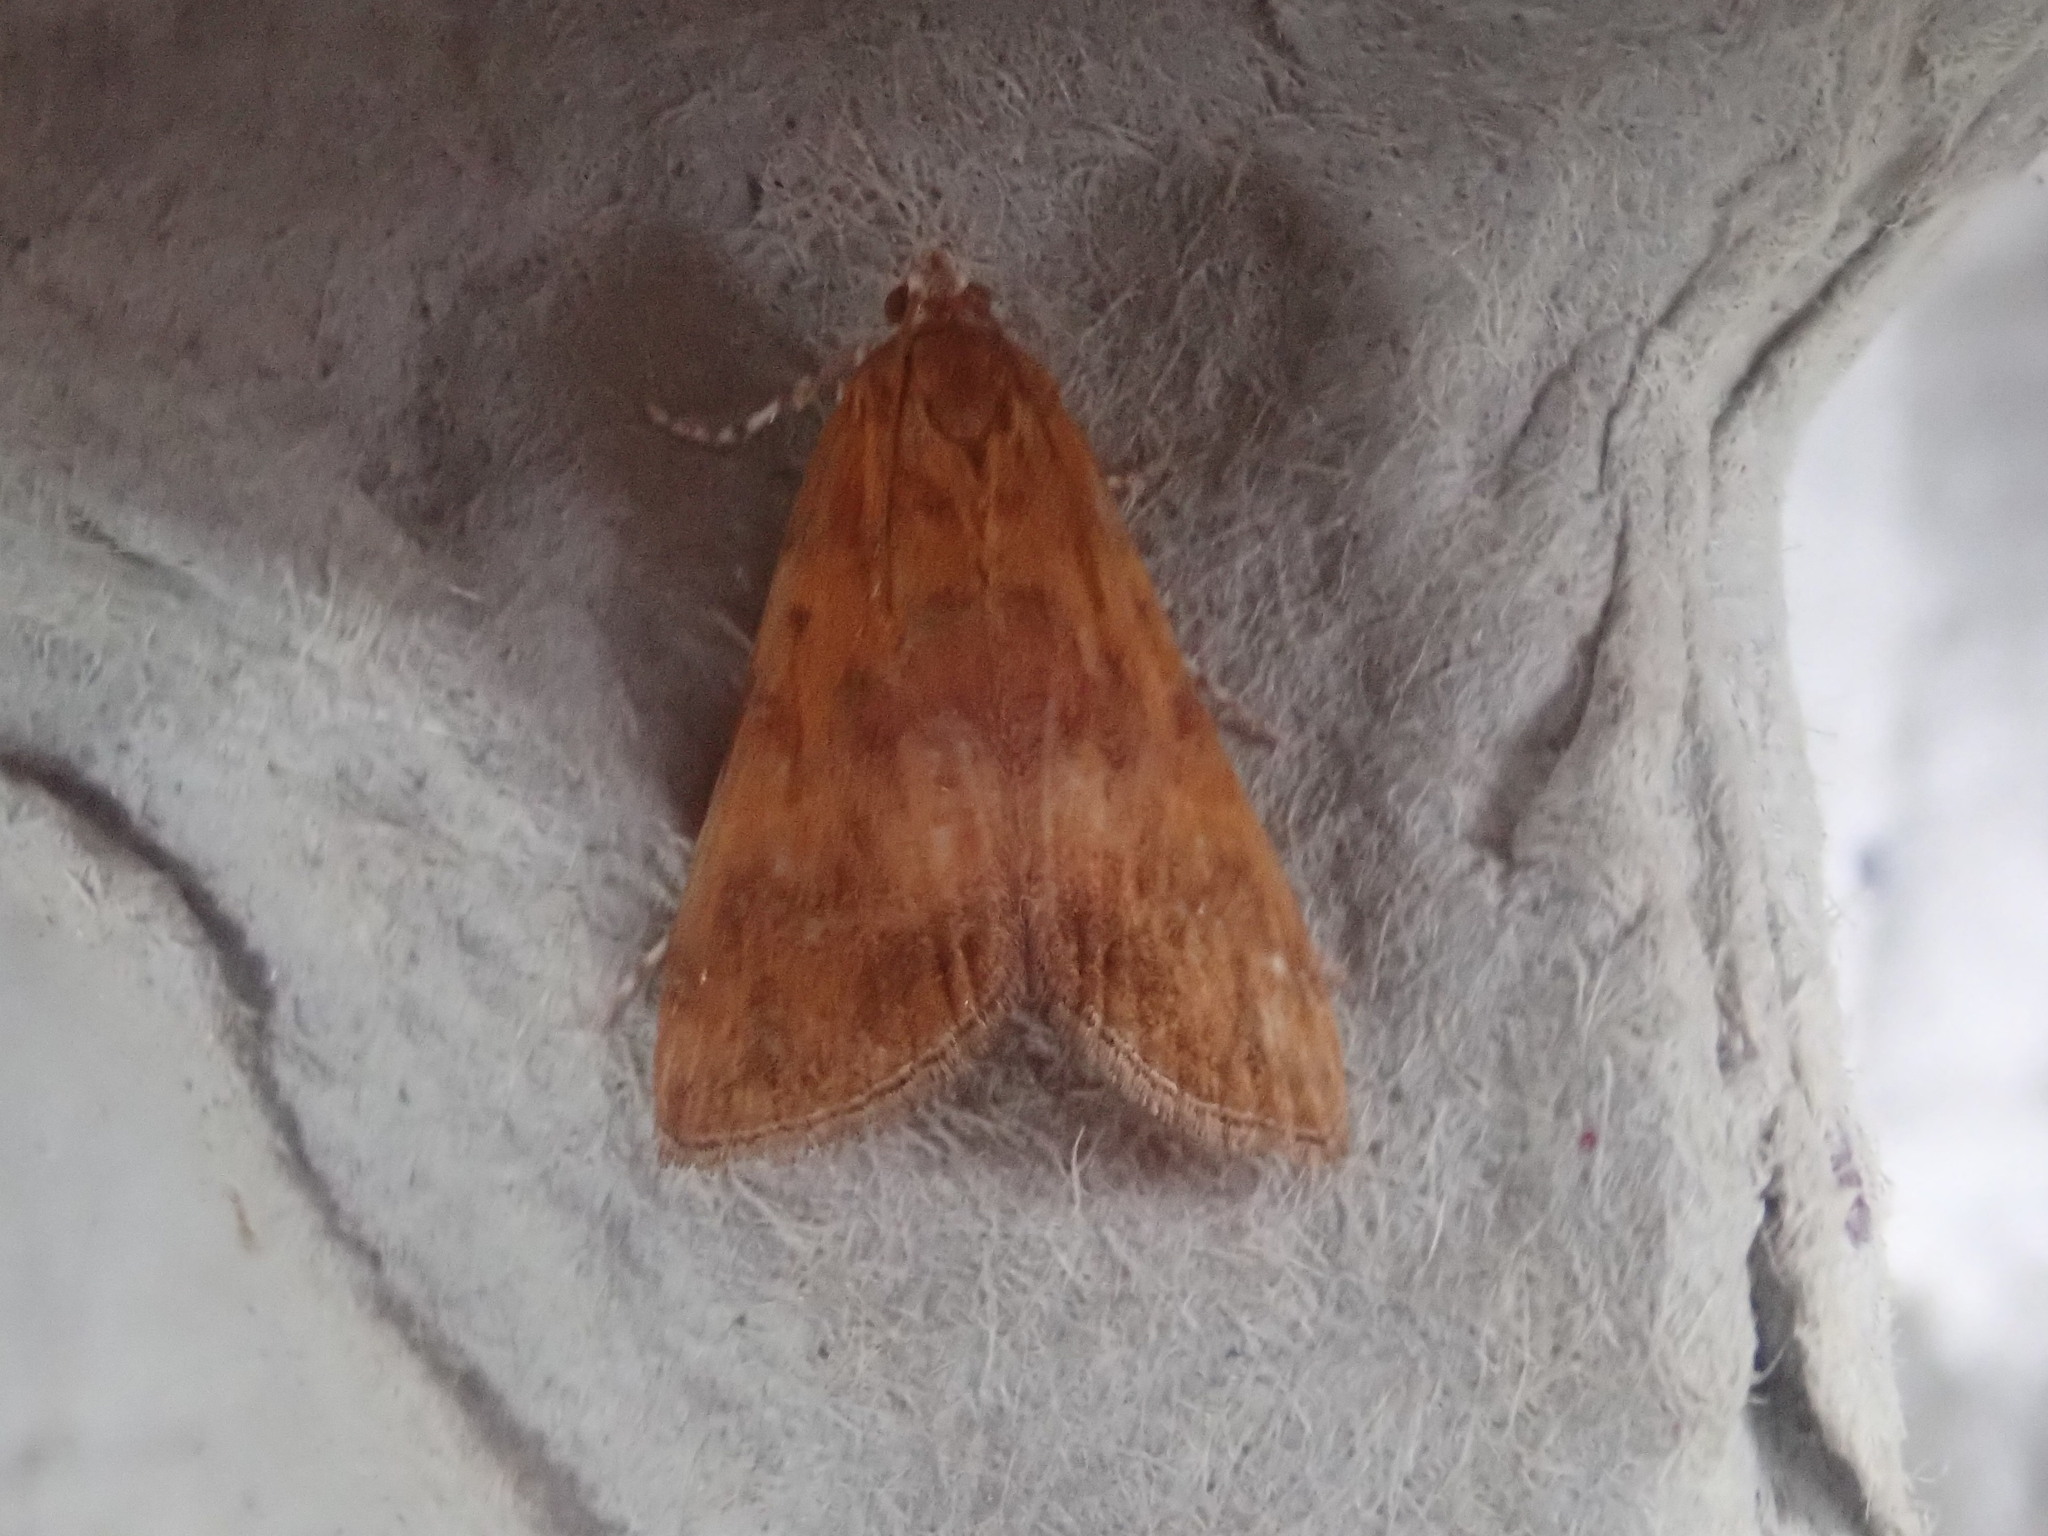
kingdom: Animalia
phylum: Arthropoda
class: Insecta
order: Lepidoptera
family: Crambidae
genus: Elophila
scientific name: Elophila gyralis
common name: Waterlily borer moth
